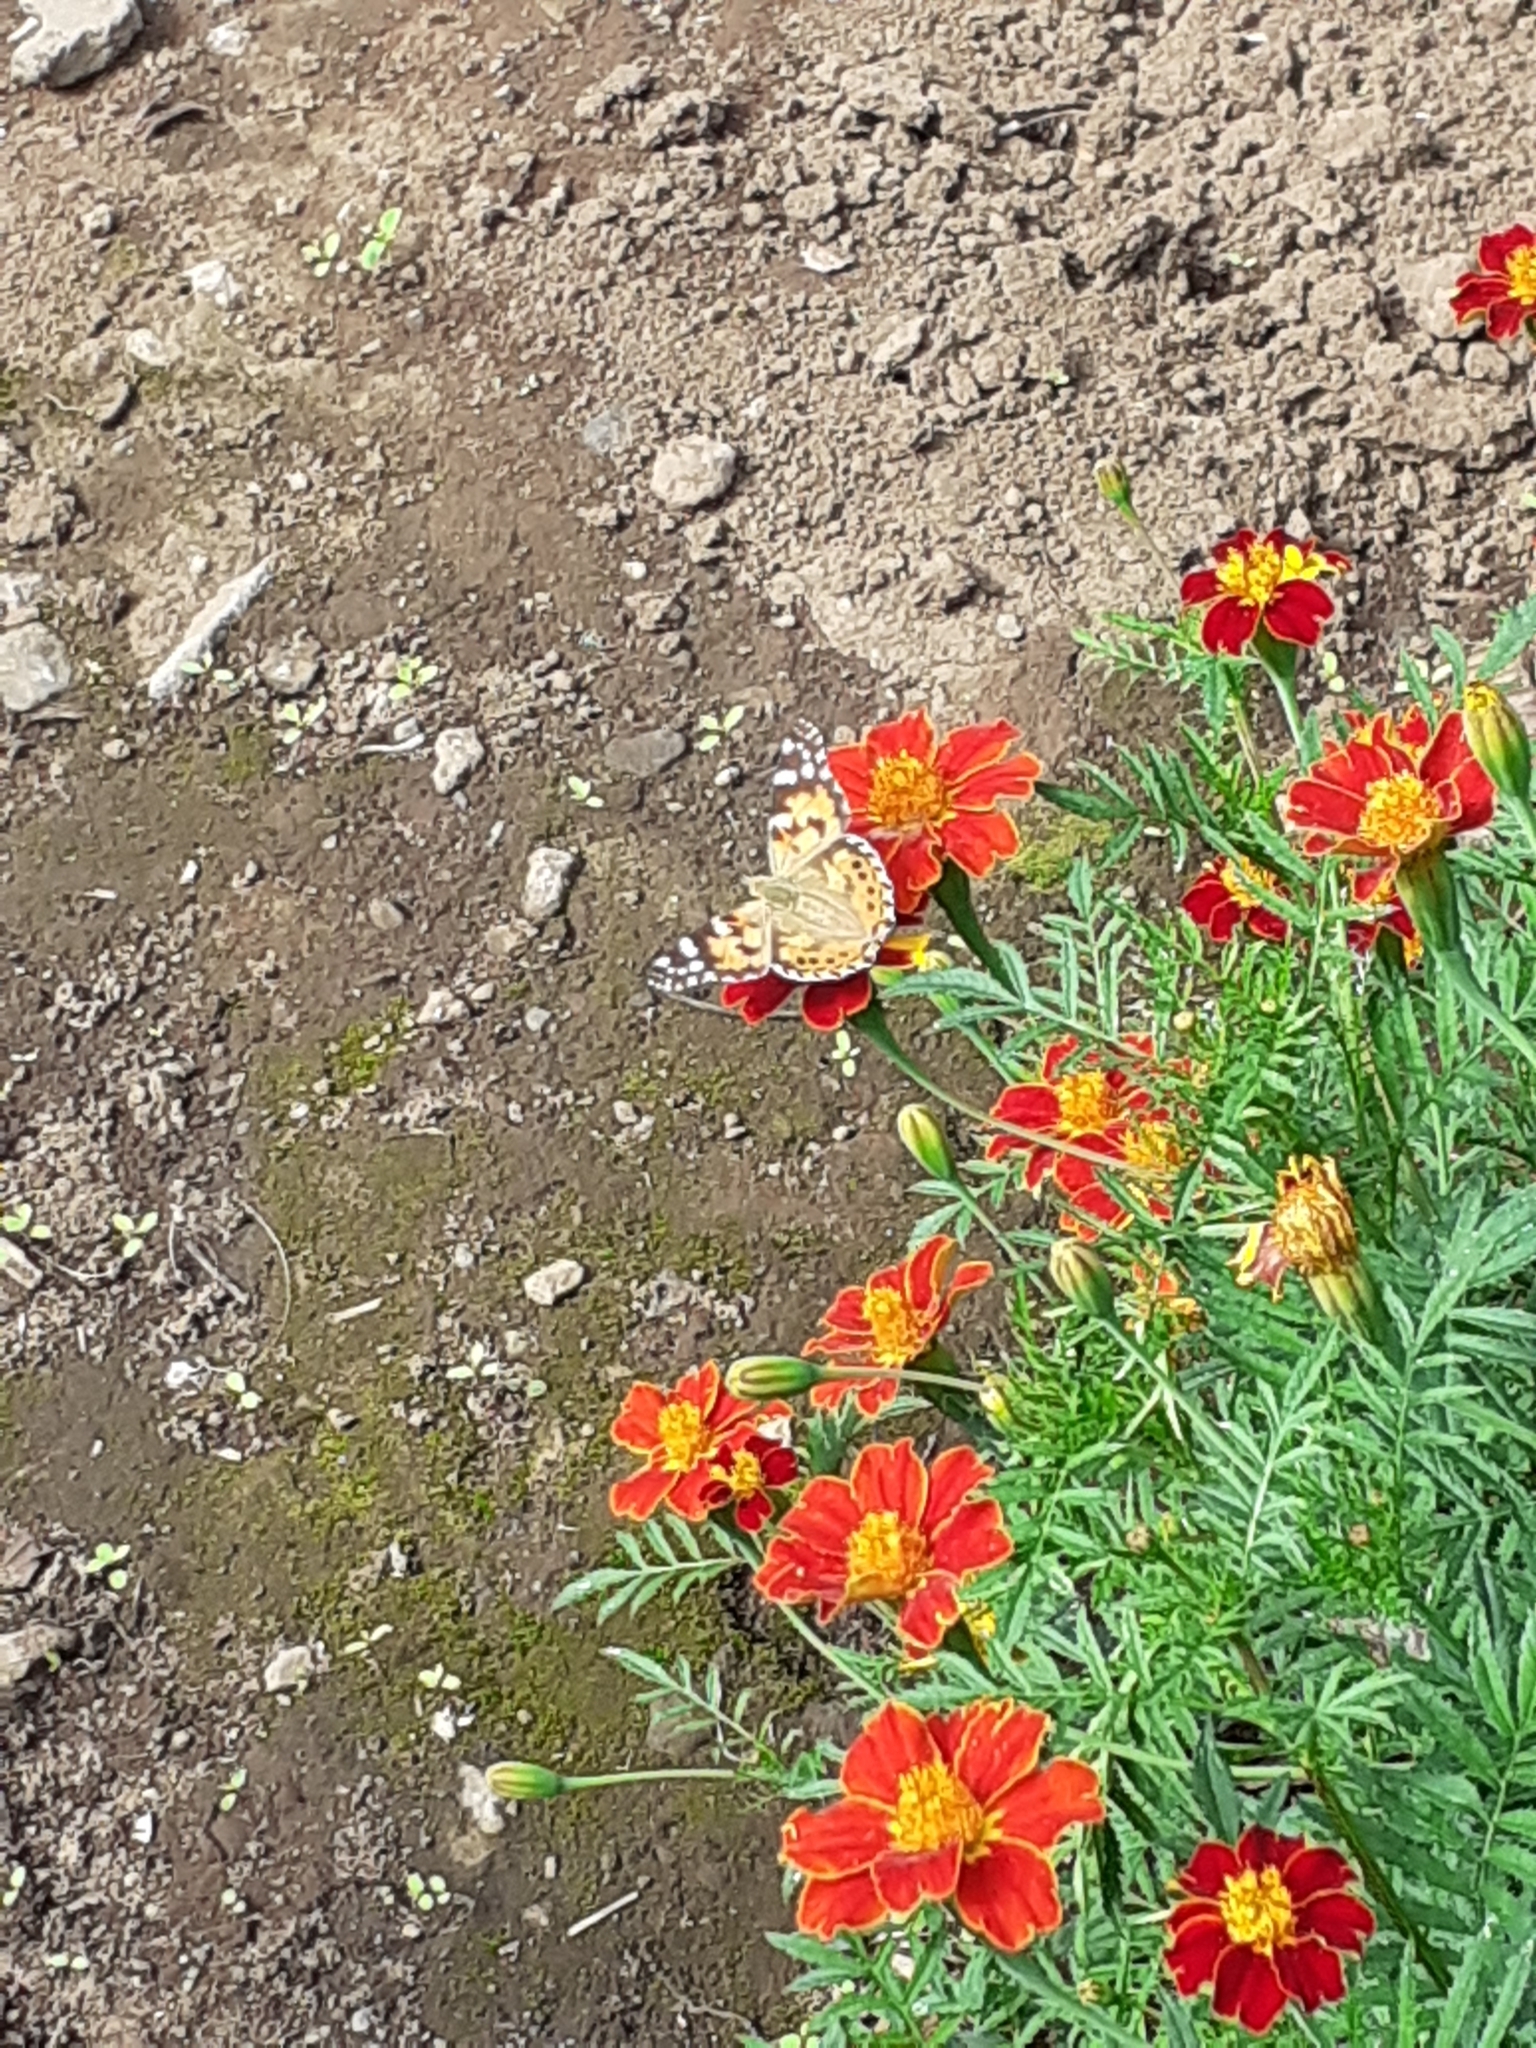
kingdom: Animalia
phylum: Arthropoda
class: Insecta
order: Lepidoptera
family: Nymphalidae
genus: Vanessa
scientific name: Vanessa cardui
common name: Painted lady
